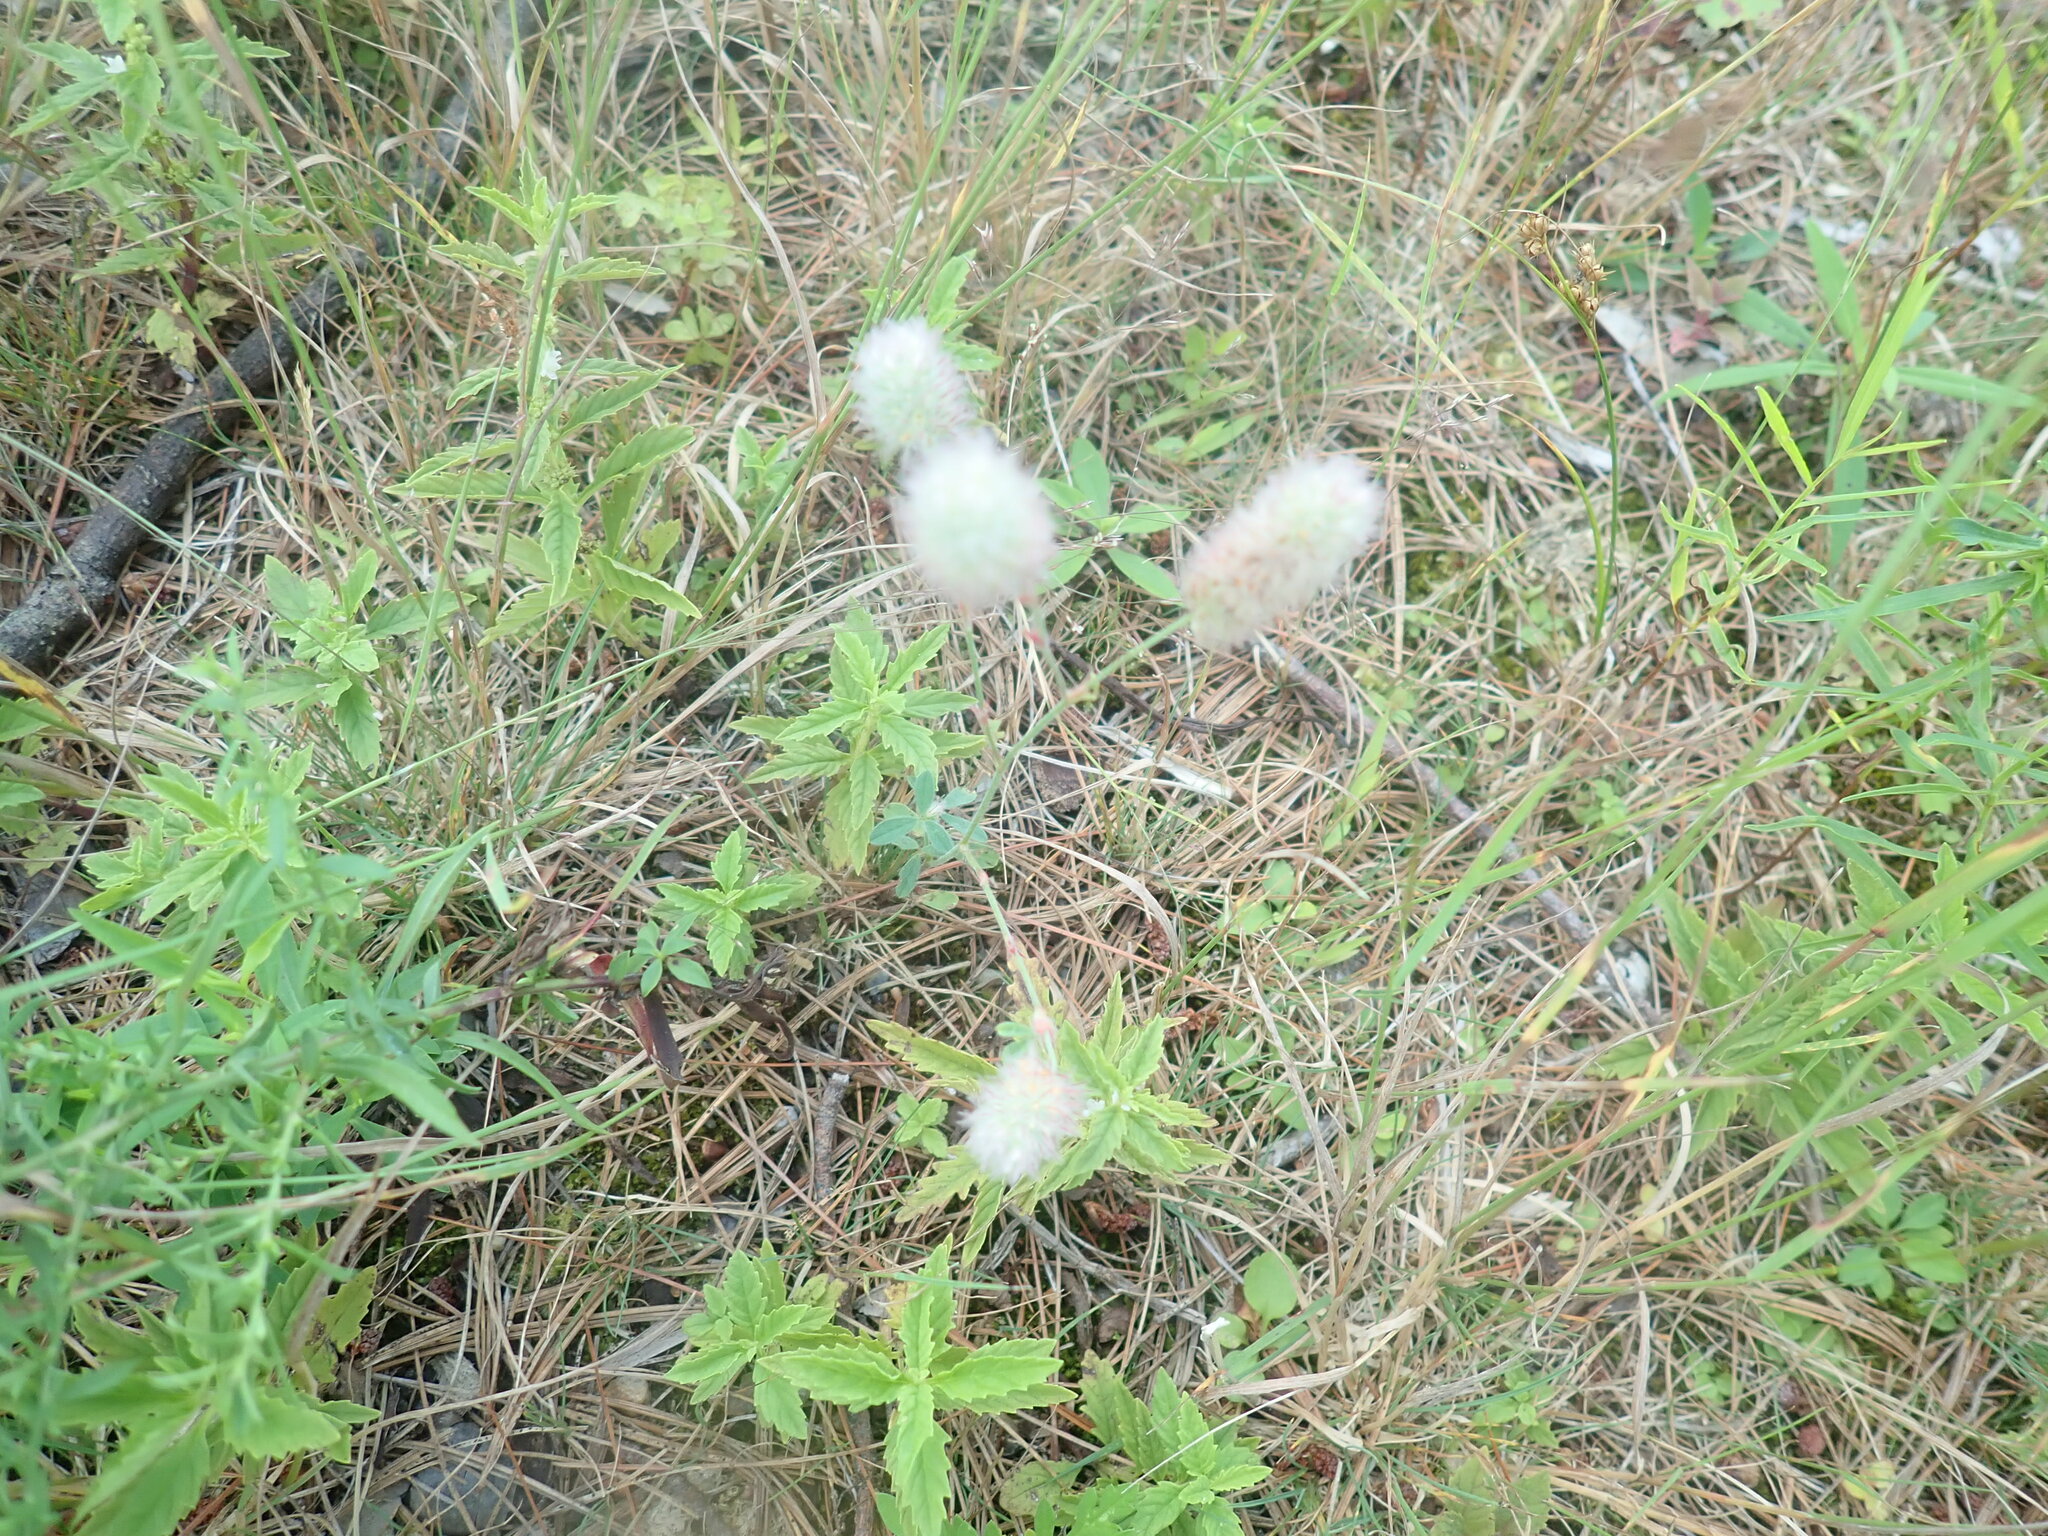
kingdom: Plantae
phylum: Tracheophyta
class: Magnoliopsida
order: Fabales
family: Fabaceae
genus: Trifolium
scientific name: Trifolium arvense
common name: Hare's-foot clover
